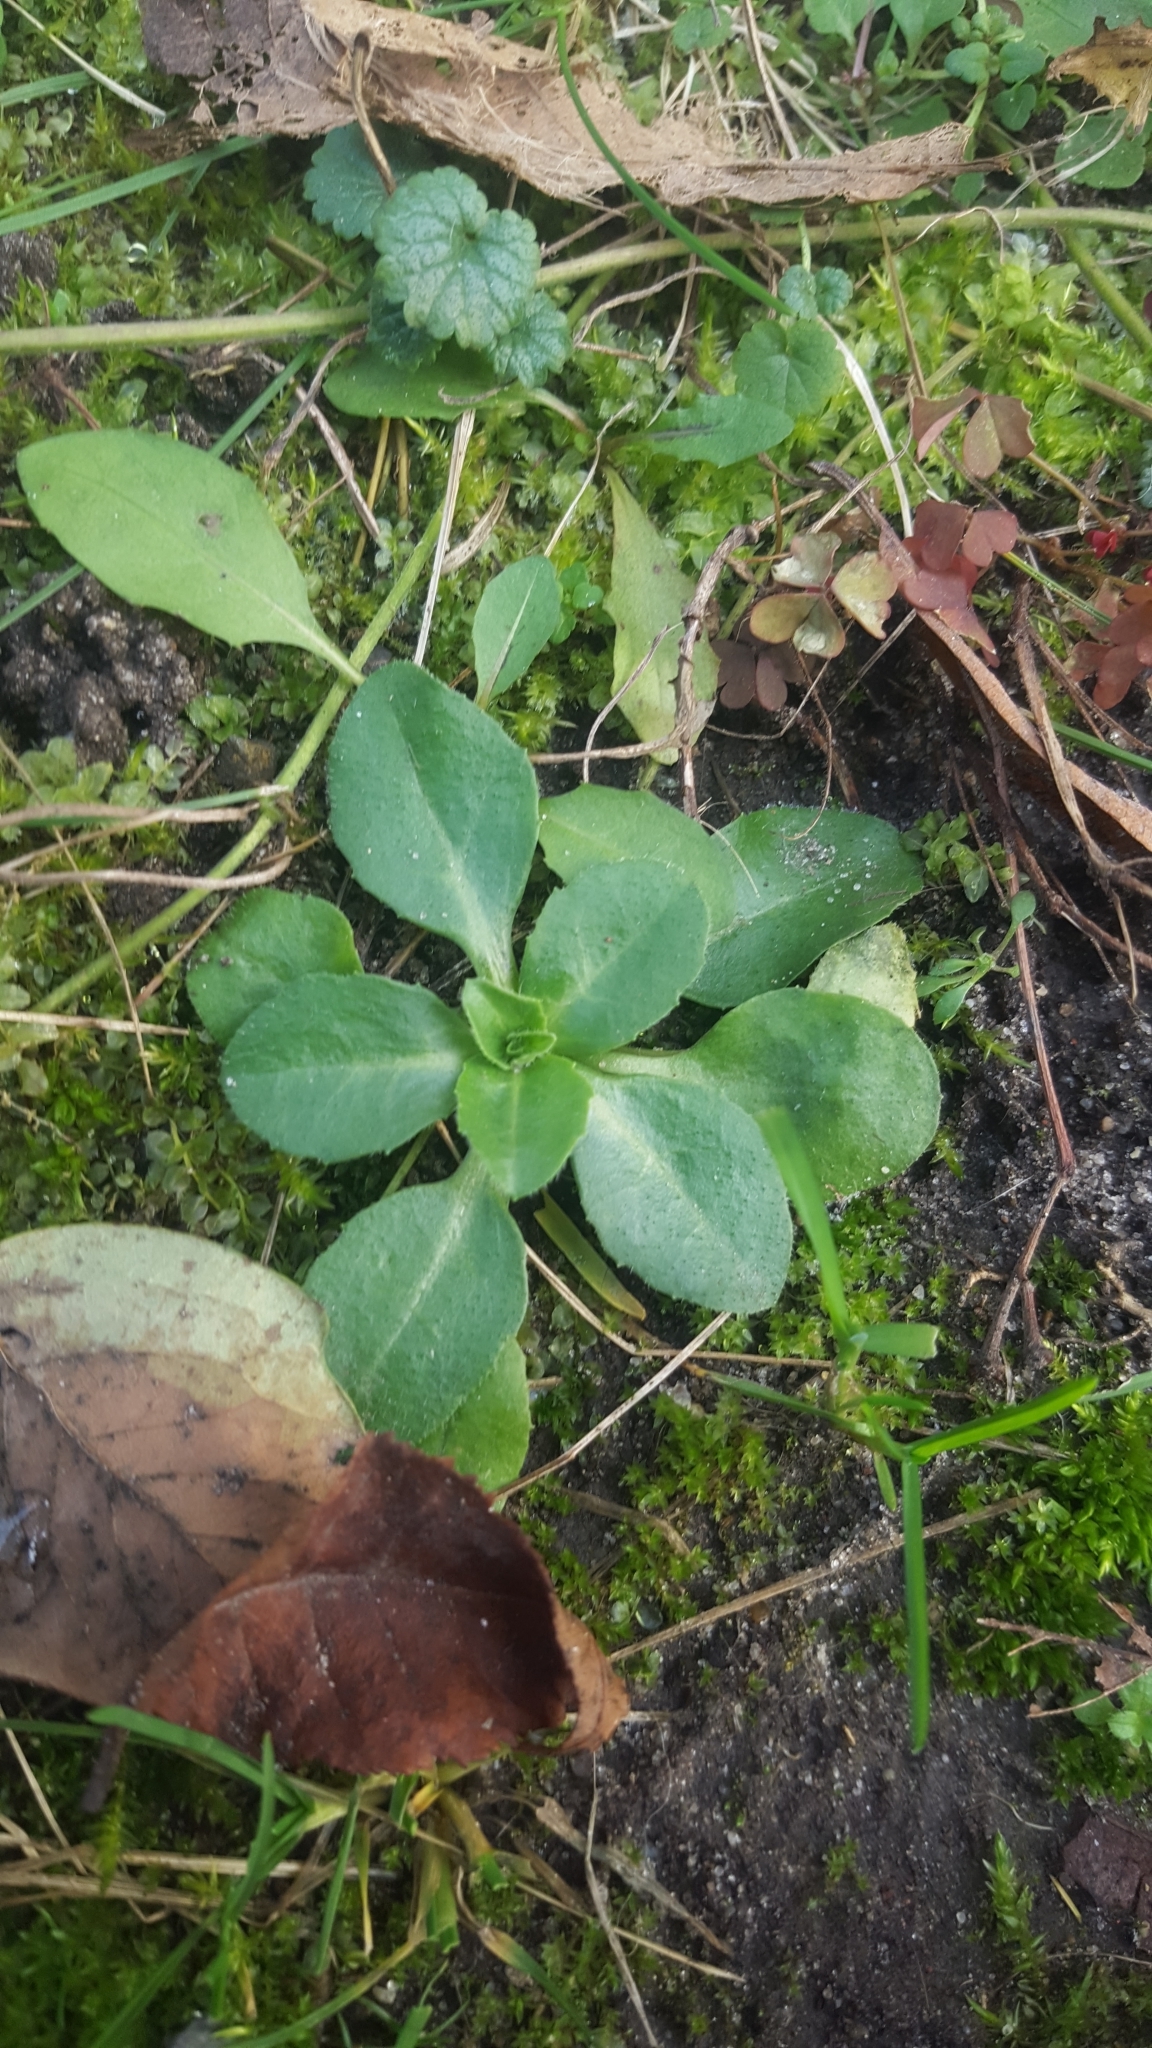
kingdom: Plantae
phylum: Tracheophyta
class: Magnoliopsida
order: Asterales
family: Asteraceae
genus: Bellis
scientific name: Bellis perennis
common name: Lawndaisy
